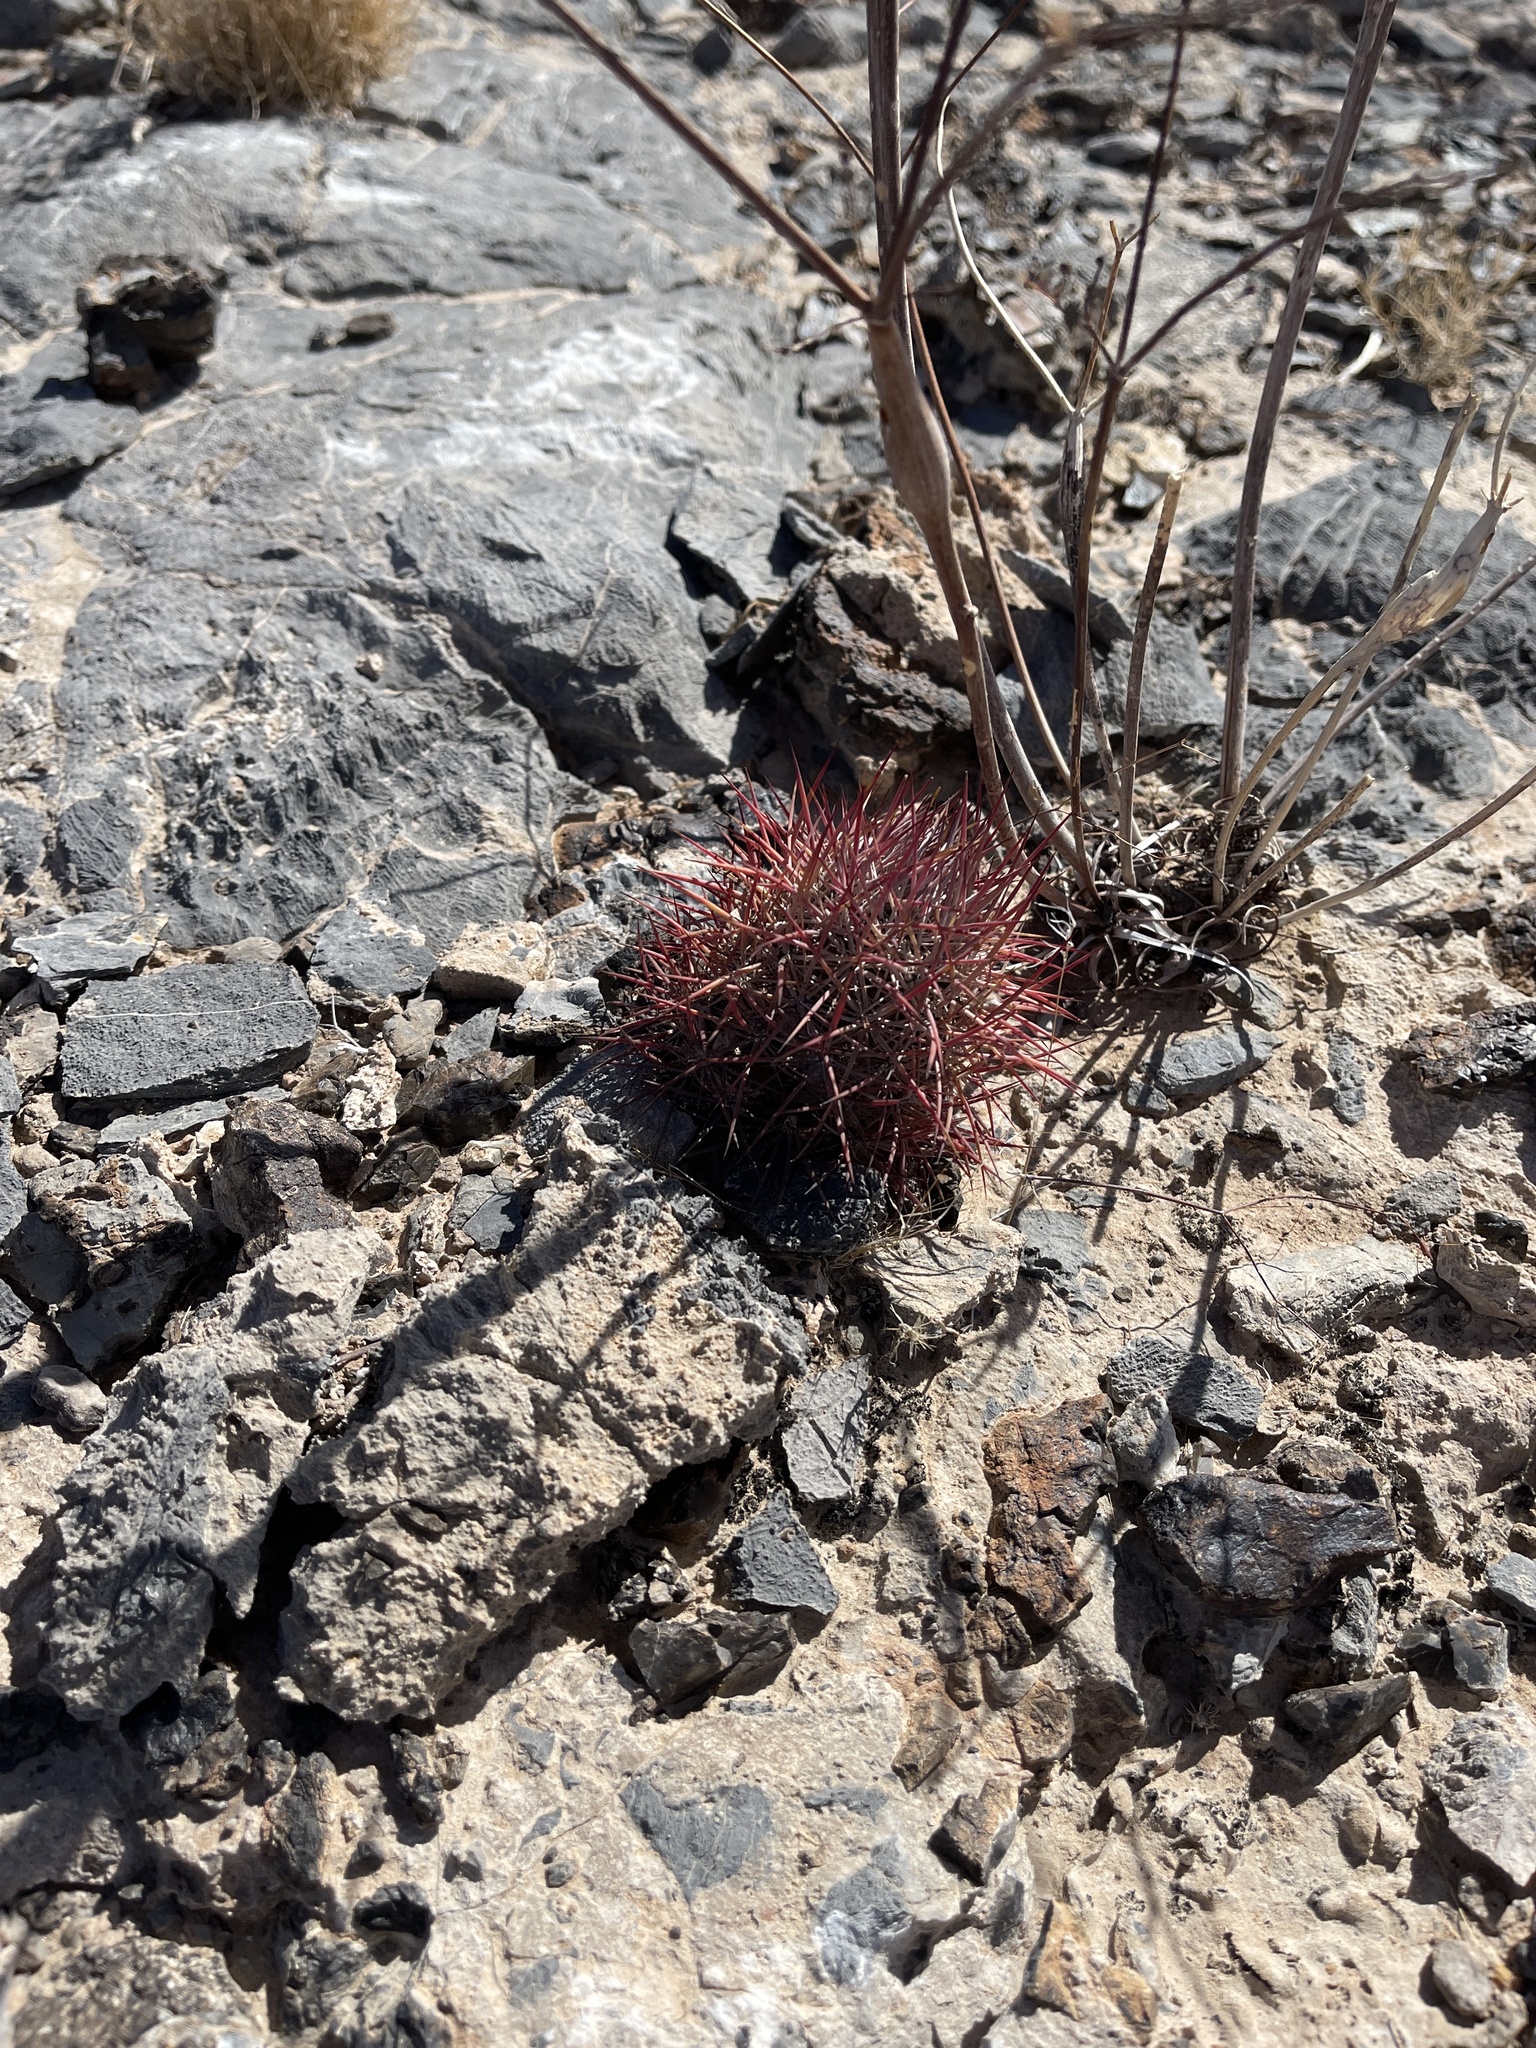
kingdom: Plantae
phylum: Tracheophyta
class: Magnoliopsida
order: Caryophyllales
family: Cactaceae
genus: Sclerocactus
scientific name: Sclerocactus johnsonii
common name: Eight-spine fishhook cactus
